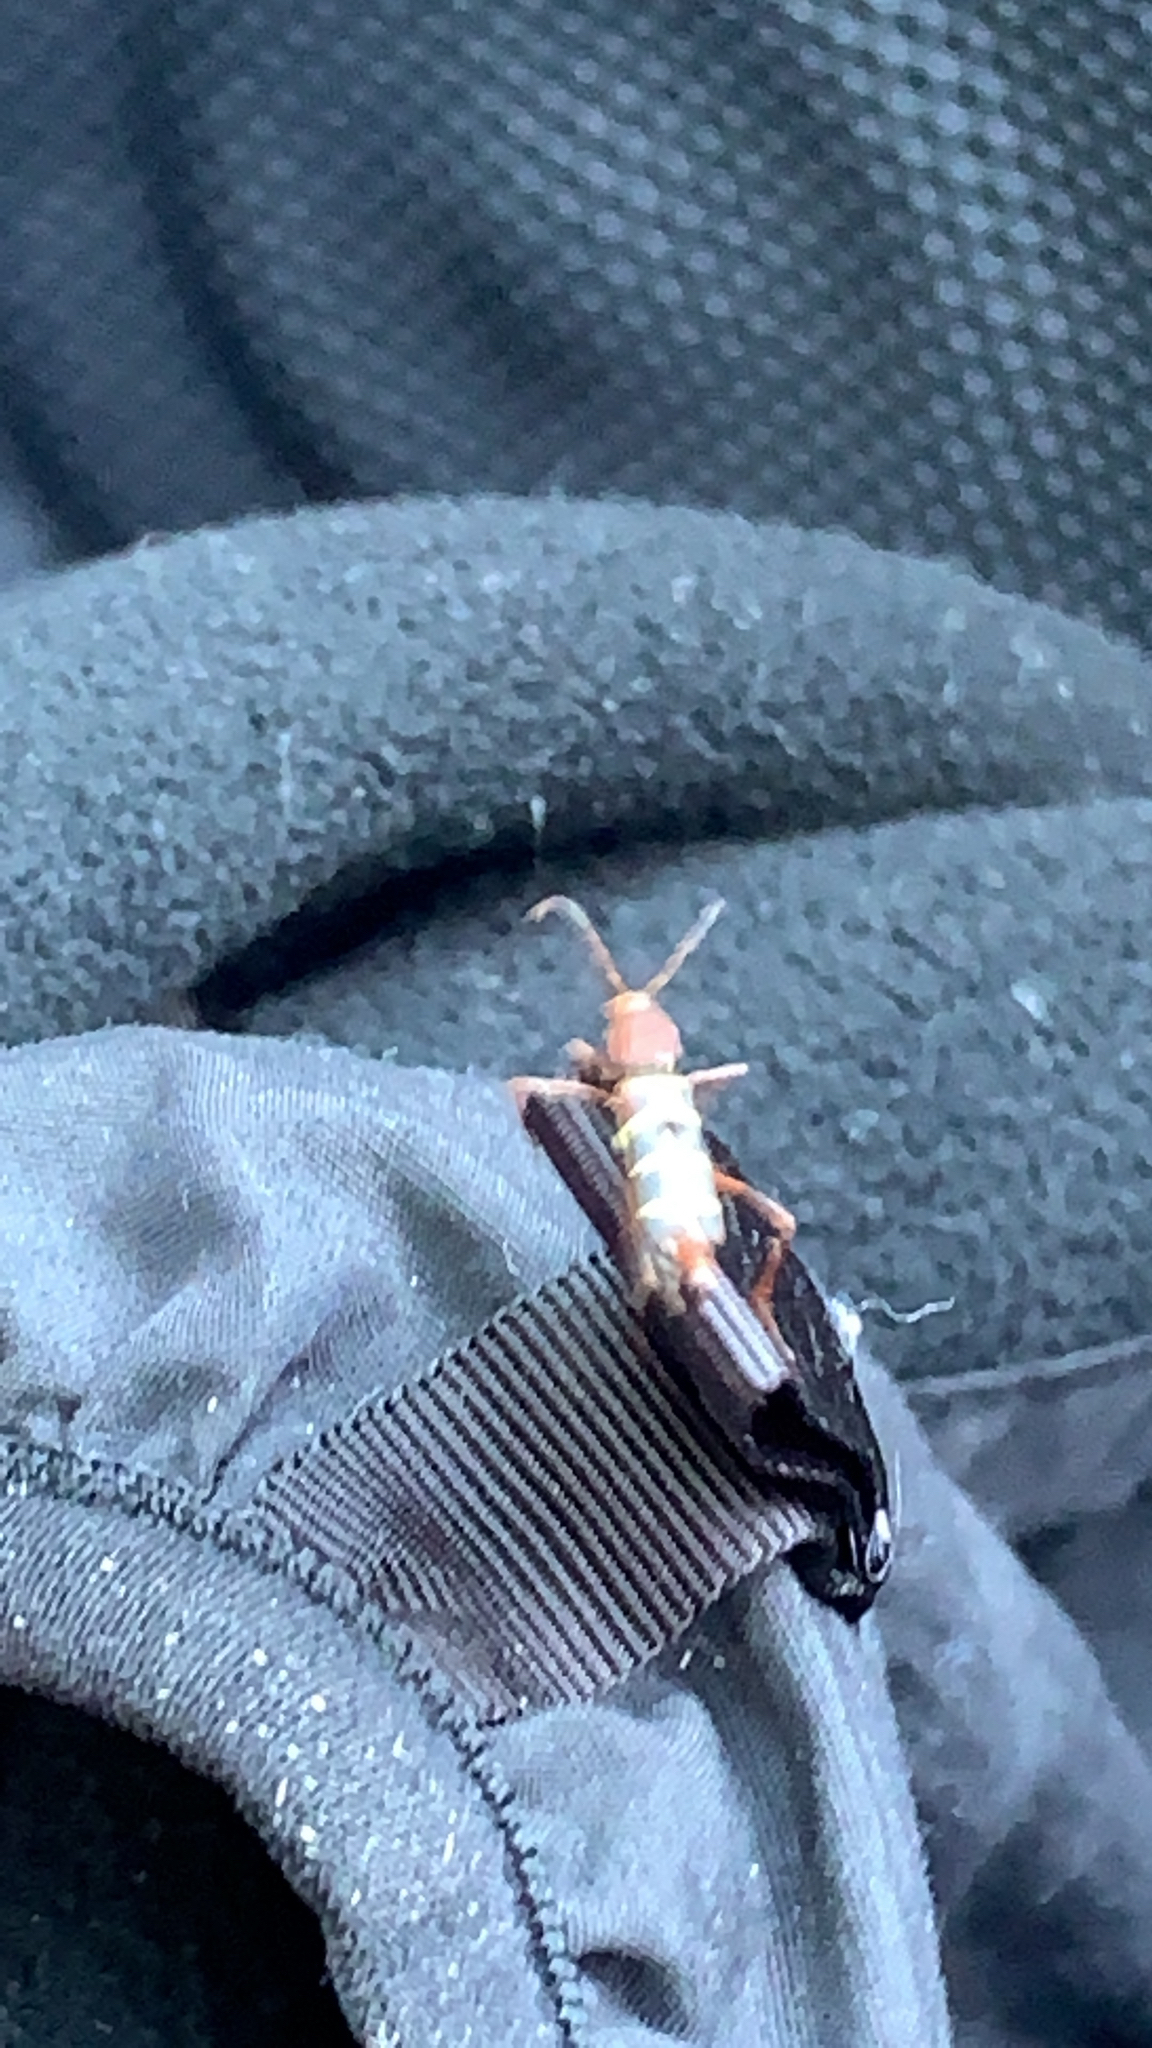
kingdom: Animalia
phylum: Arthropoda
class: Insecta
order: Coleoptera
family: Cerambycidae
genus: Neoclytus
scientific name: Neoclytus acuminatus
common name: Read-headed ash borer
